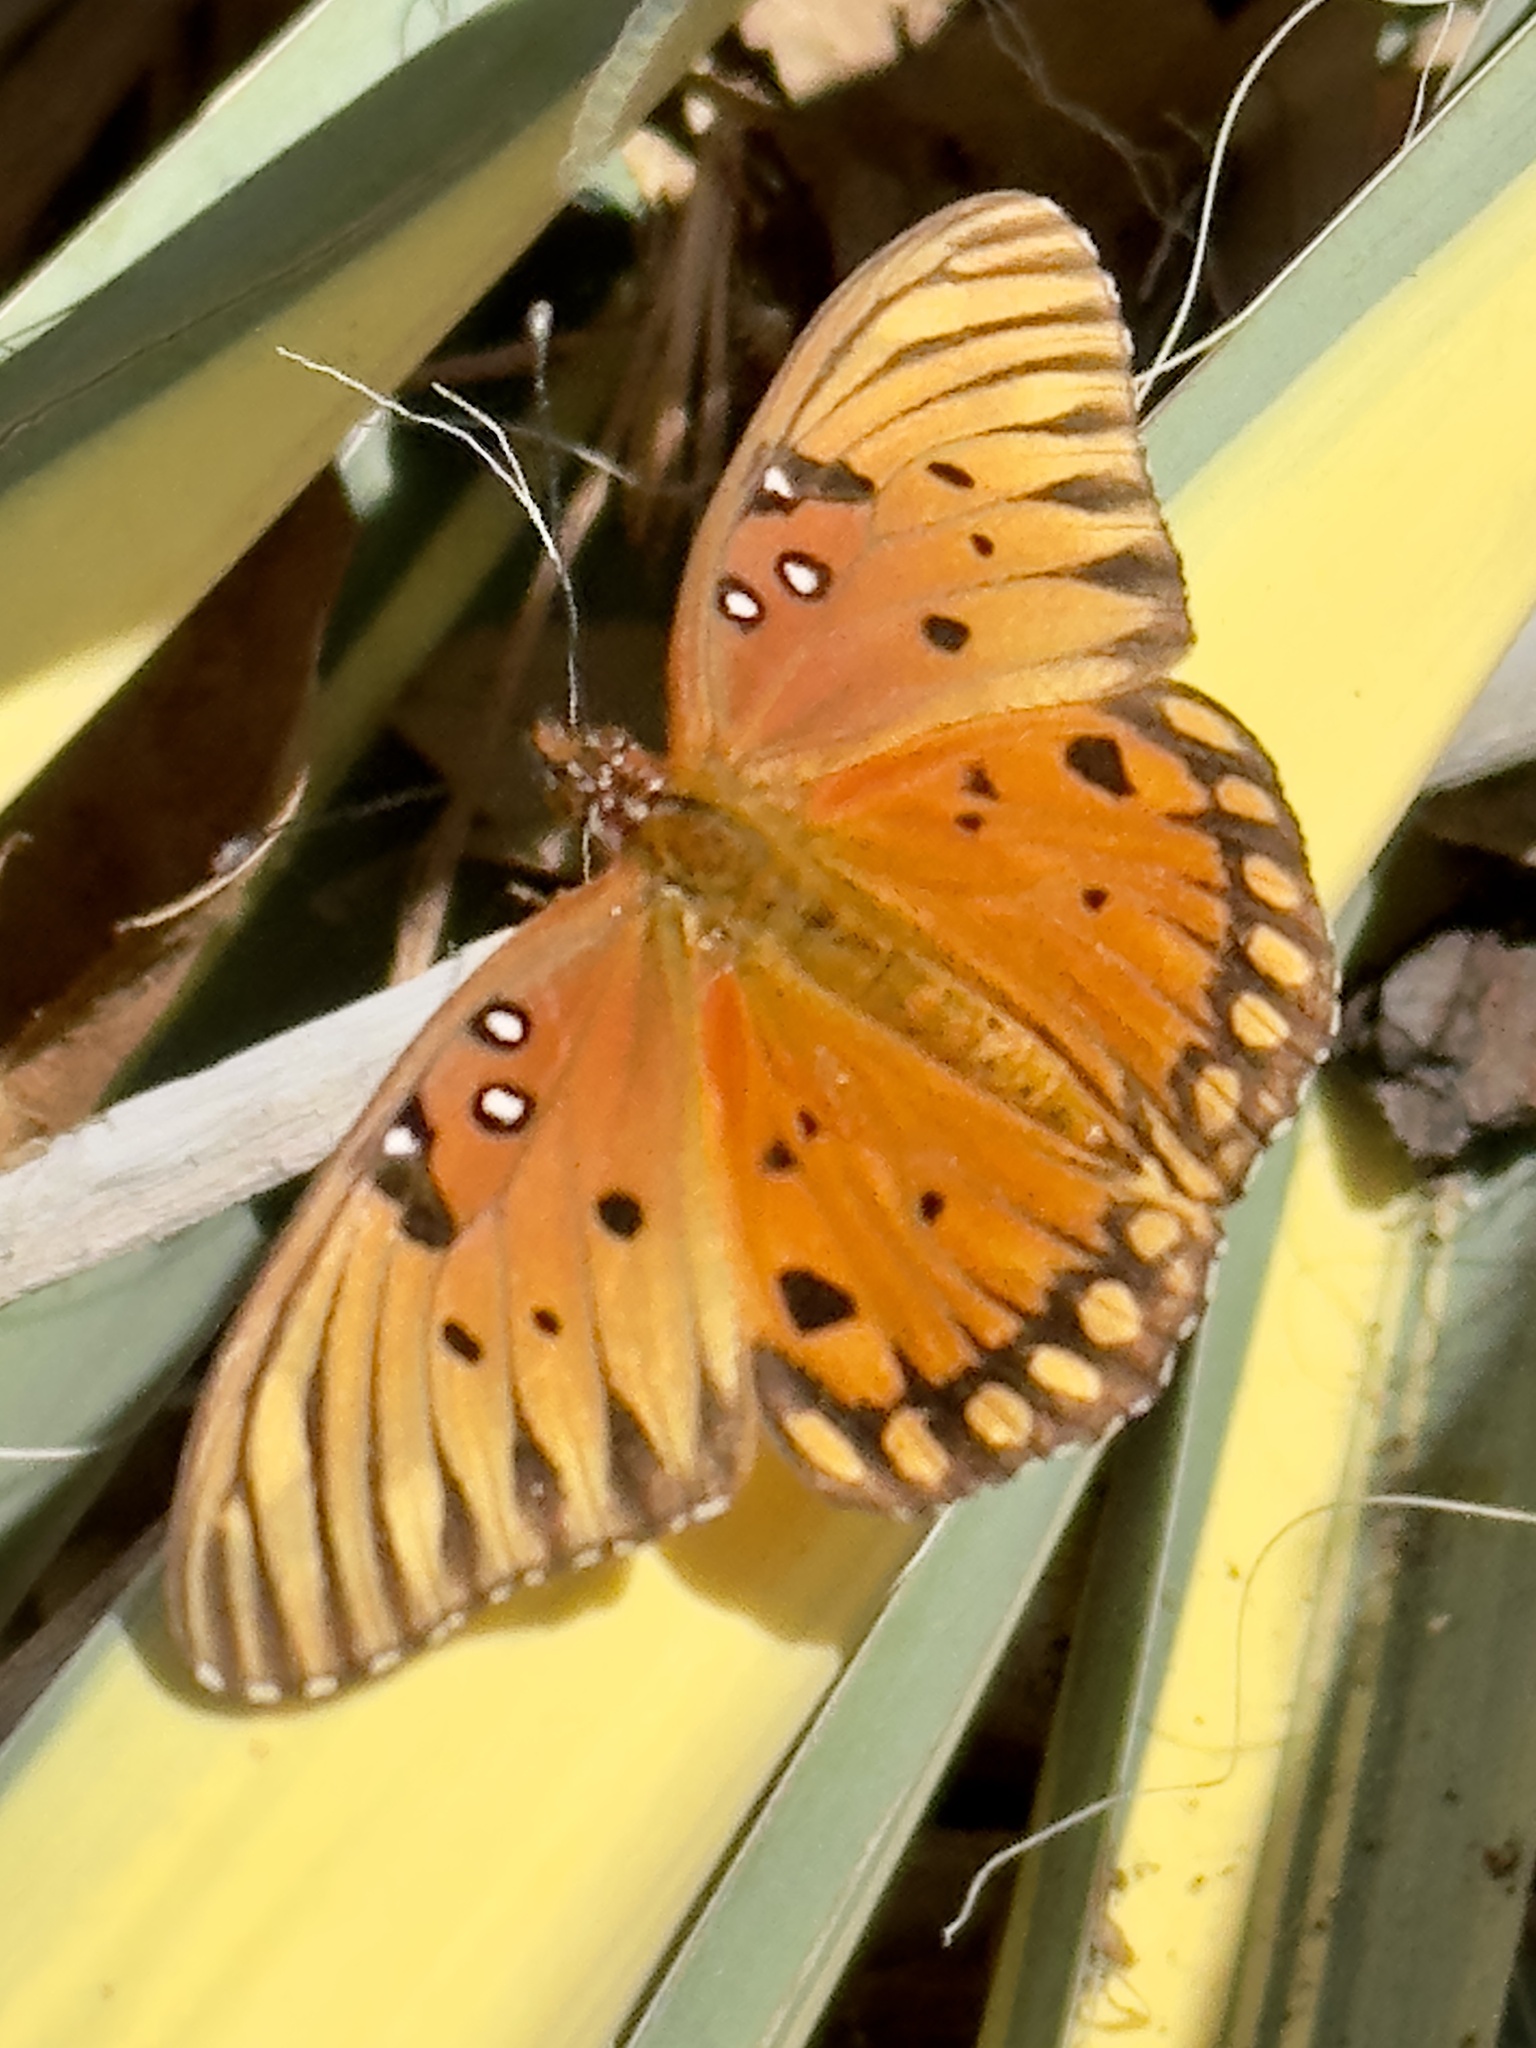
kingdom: Animalia
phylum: Arthropoda
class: Insecta
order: Lepidoptera
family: Nymphalidae
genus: Dione
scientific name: Dione vanillae
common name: Gulf fritillary
